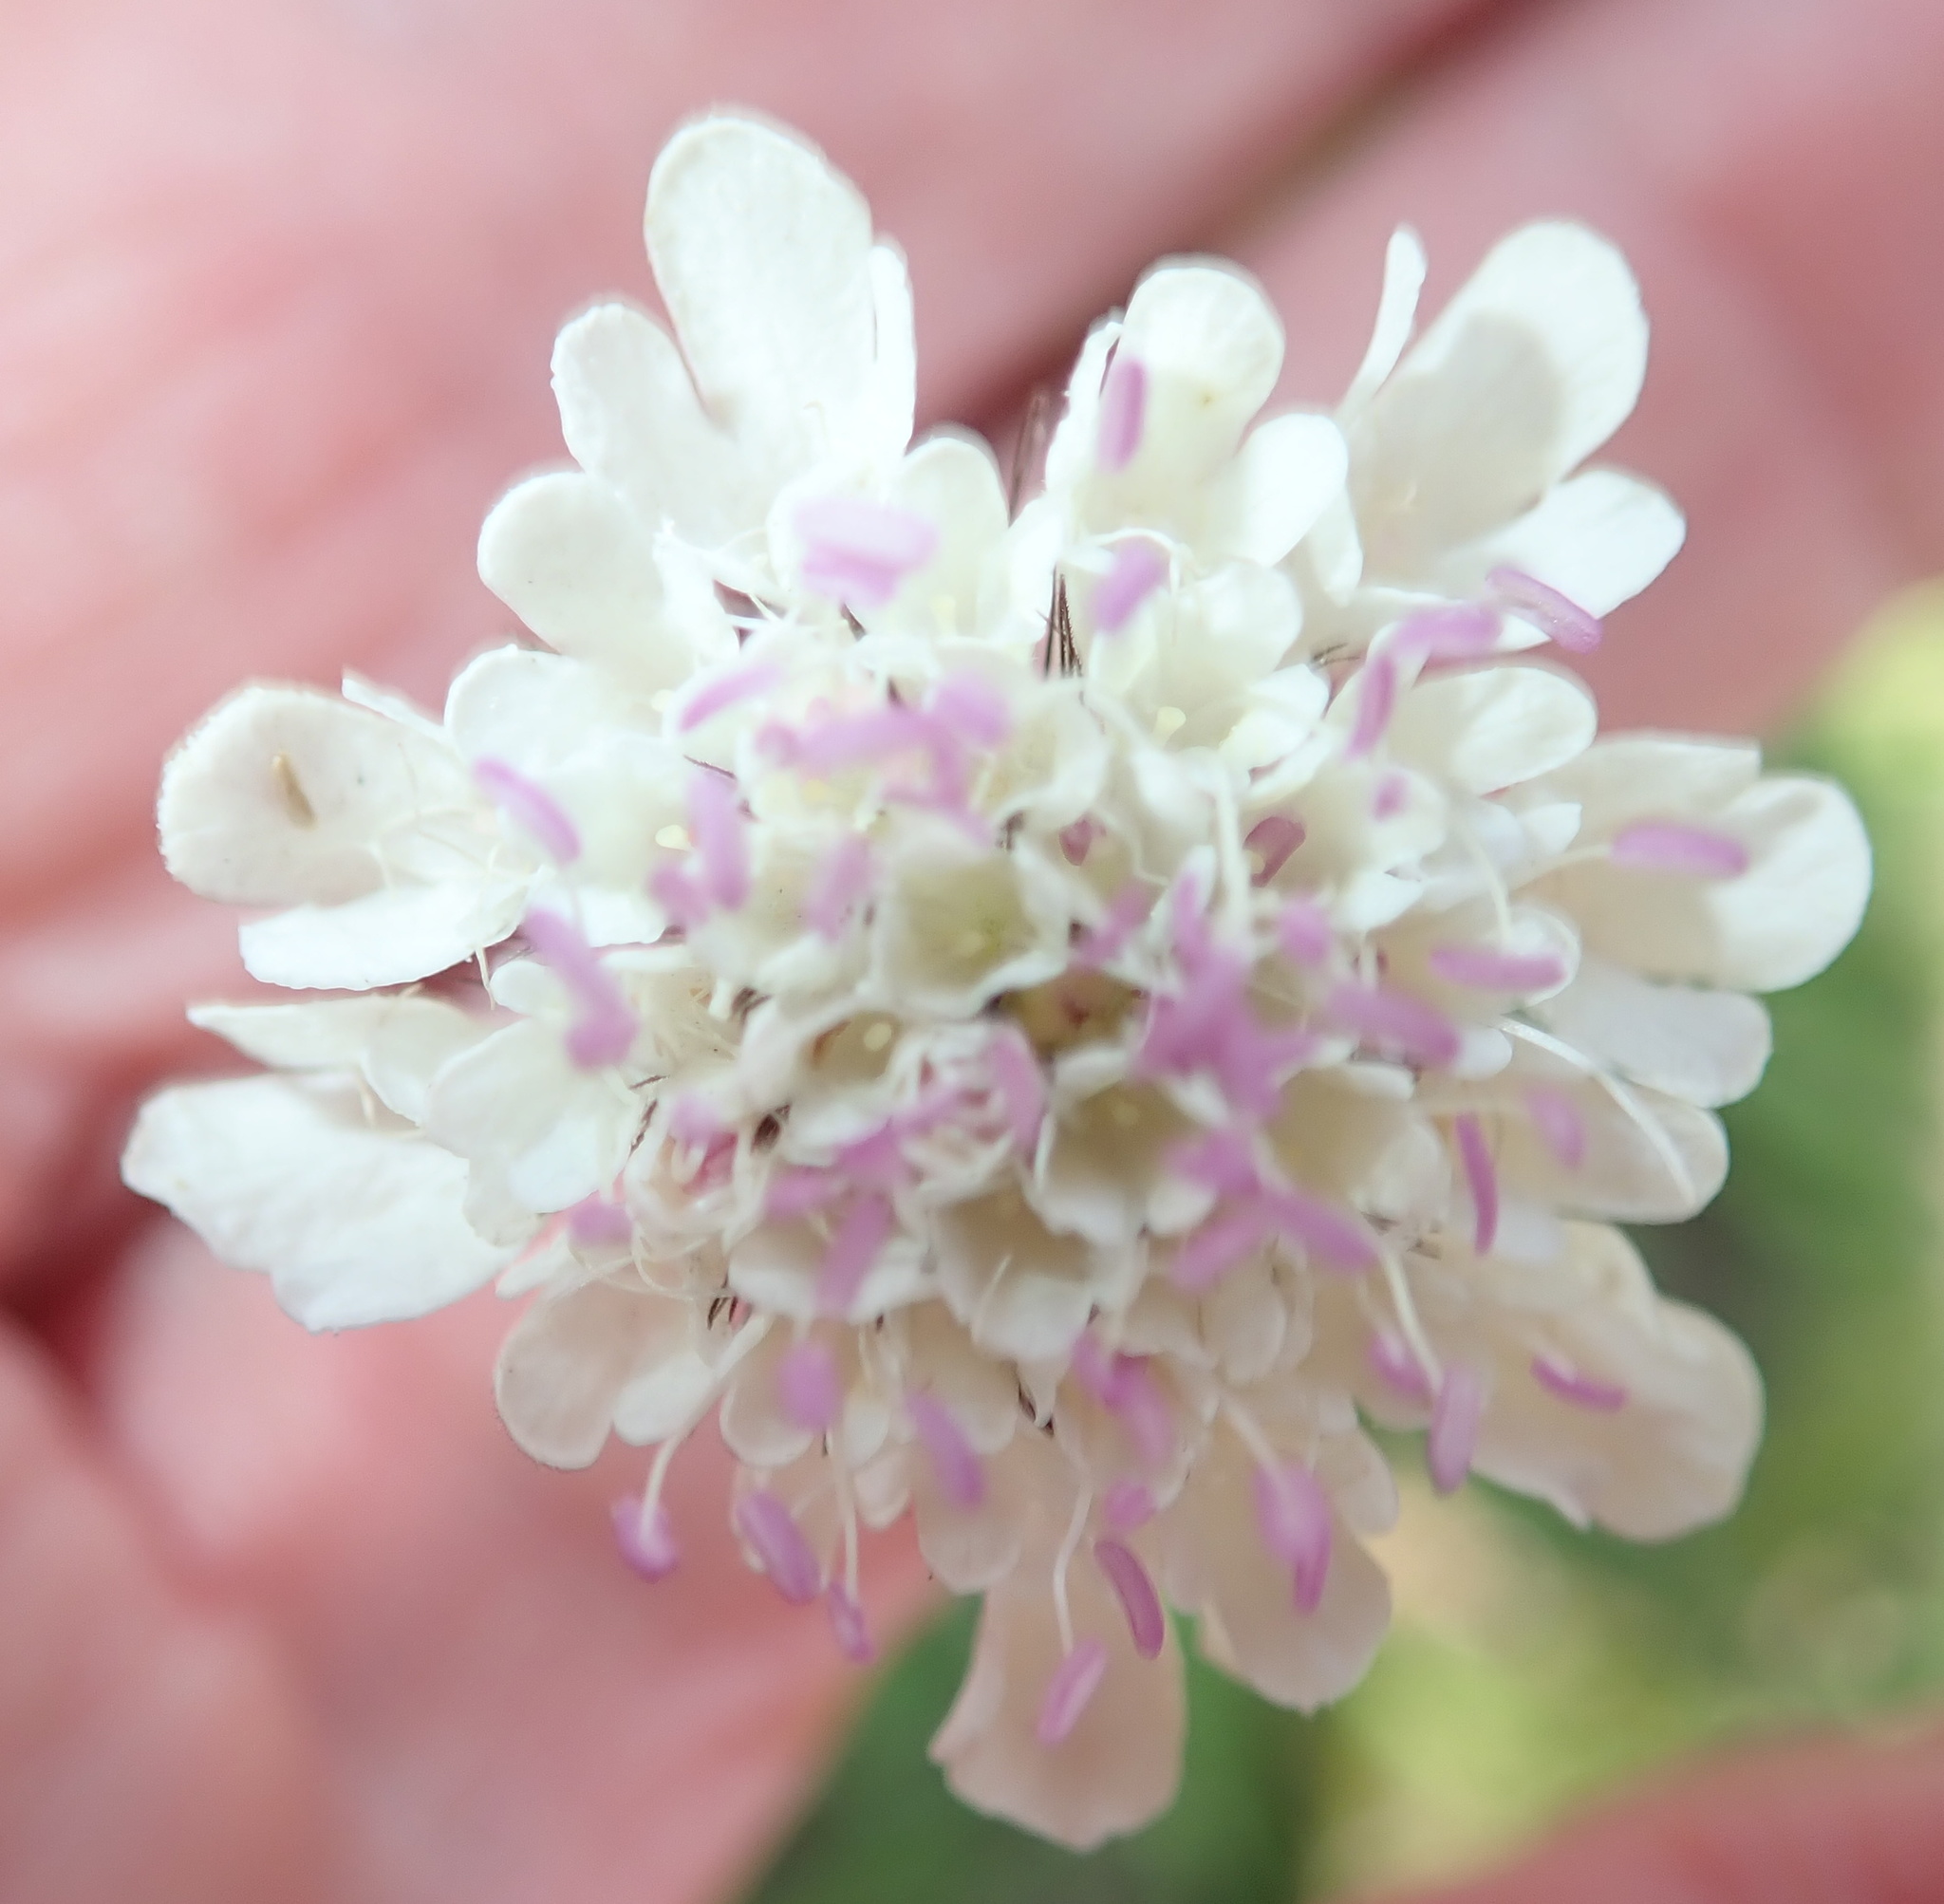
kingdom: Plantae
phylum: Tracheophyta
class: Magnoliopsida
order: Dipsacales
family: Caprifoliaceae
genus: Scabiosa
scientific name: Scabiosa columbaria
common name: Small scabious
